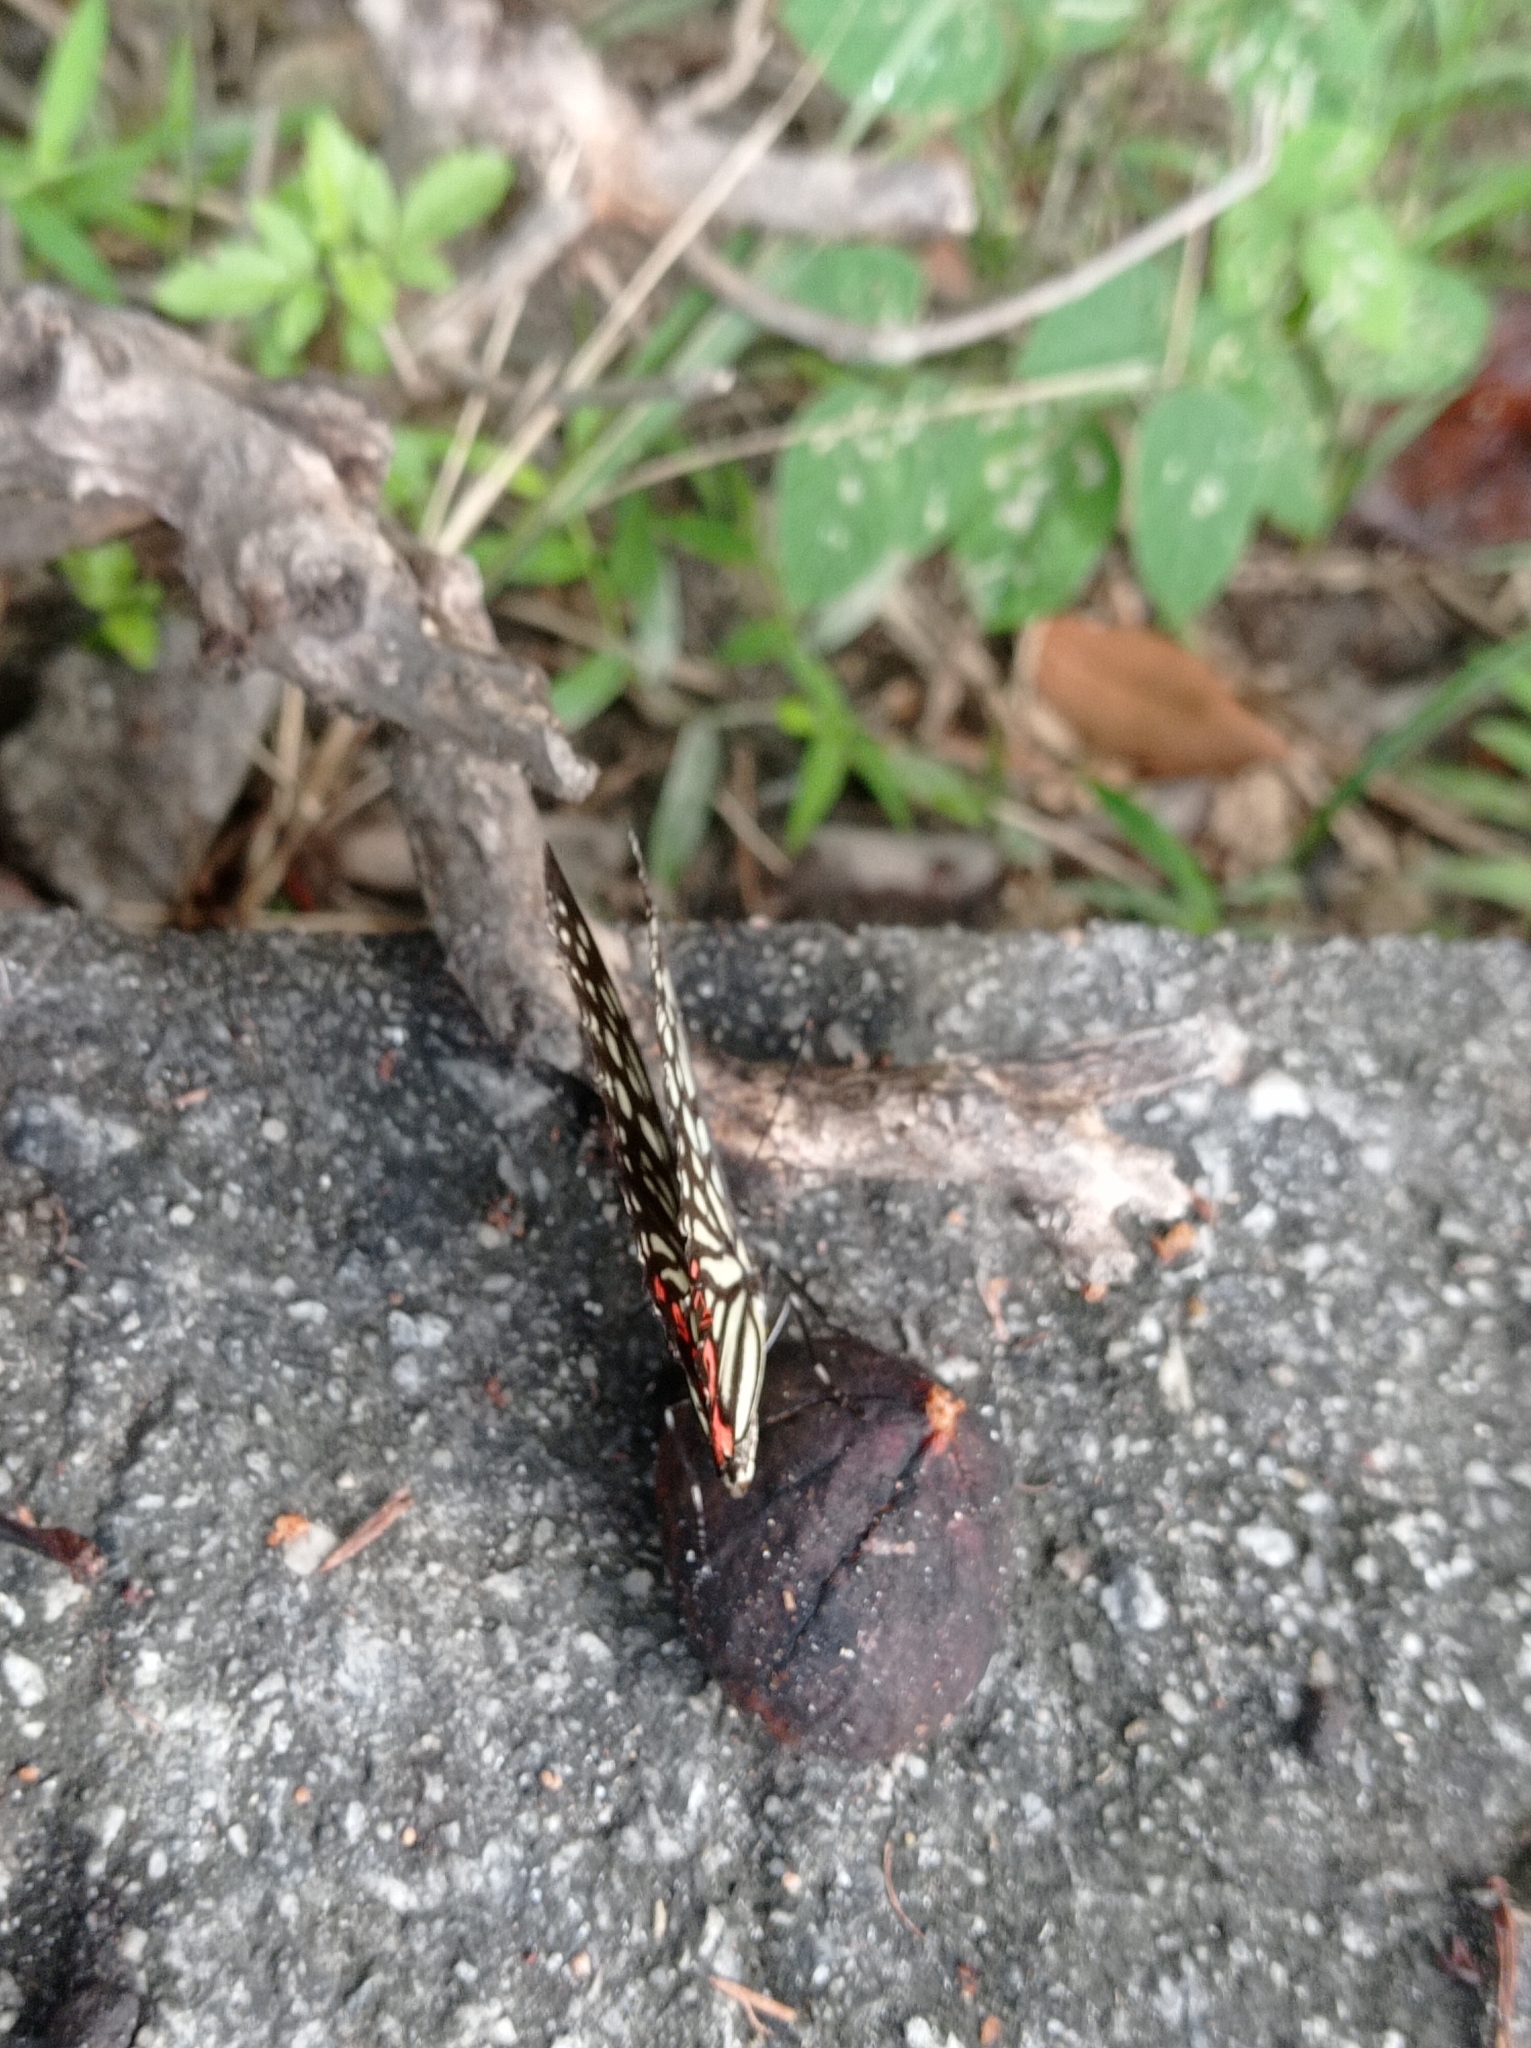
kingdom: Animalia
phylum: Arthropoda
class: Insecta
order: Lepidoptera
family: Nymphalidae
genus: Hestina
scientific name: Hestina assimilis
